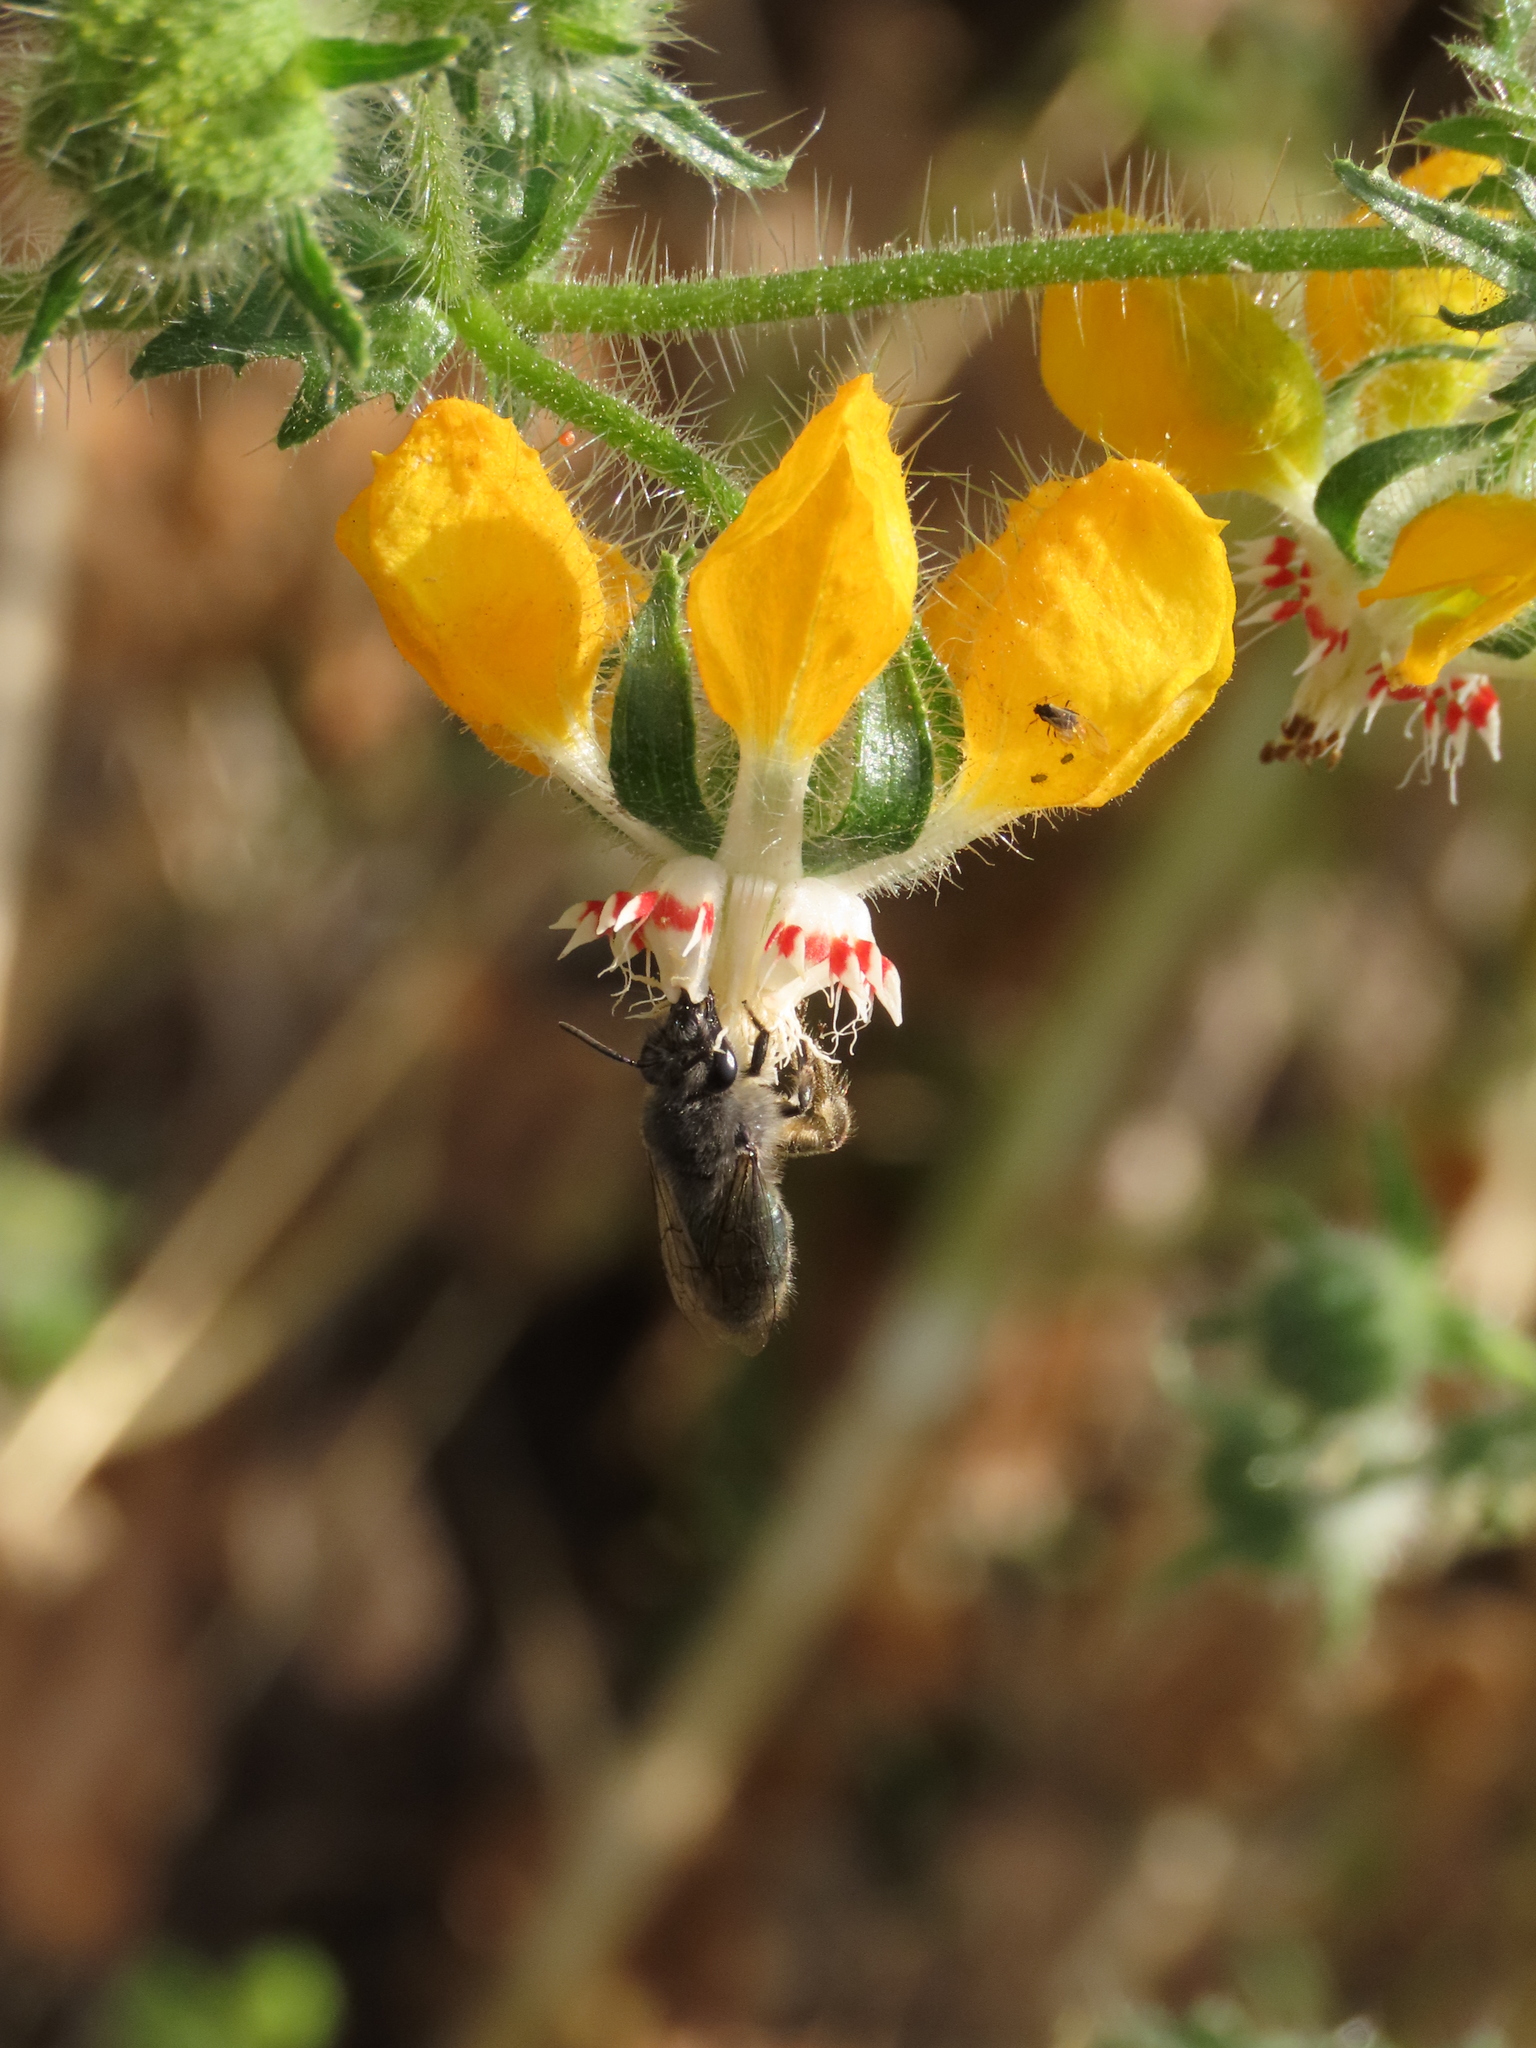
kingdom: Animalia
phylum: Arthropoda
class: Insecta
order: Hymenoptera
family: Colletidae
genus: Colletes
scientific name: Colletes cyanescens
